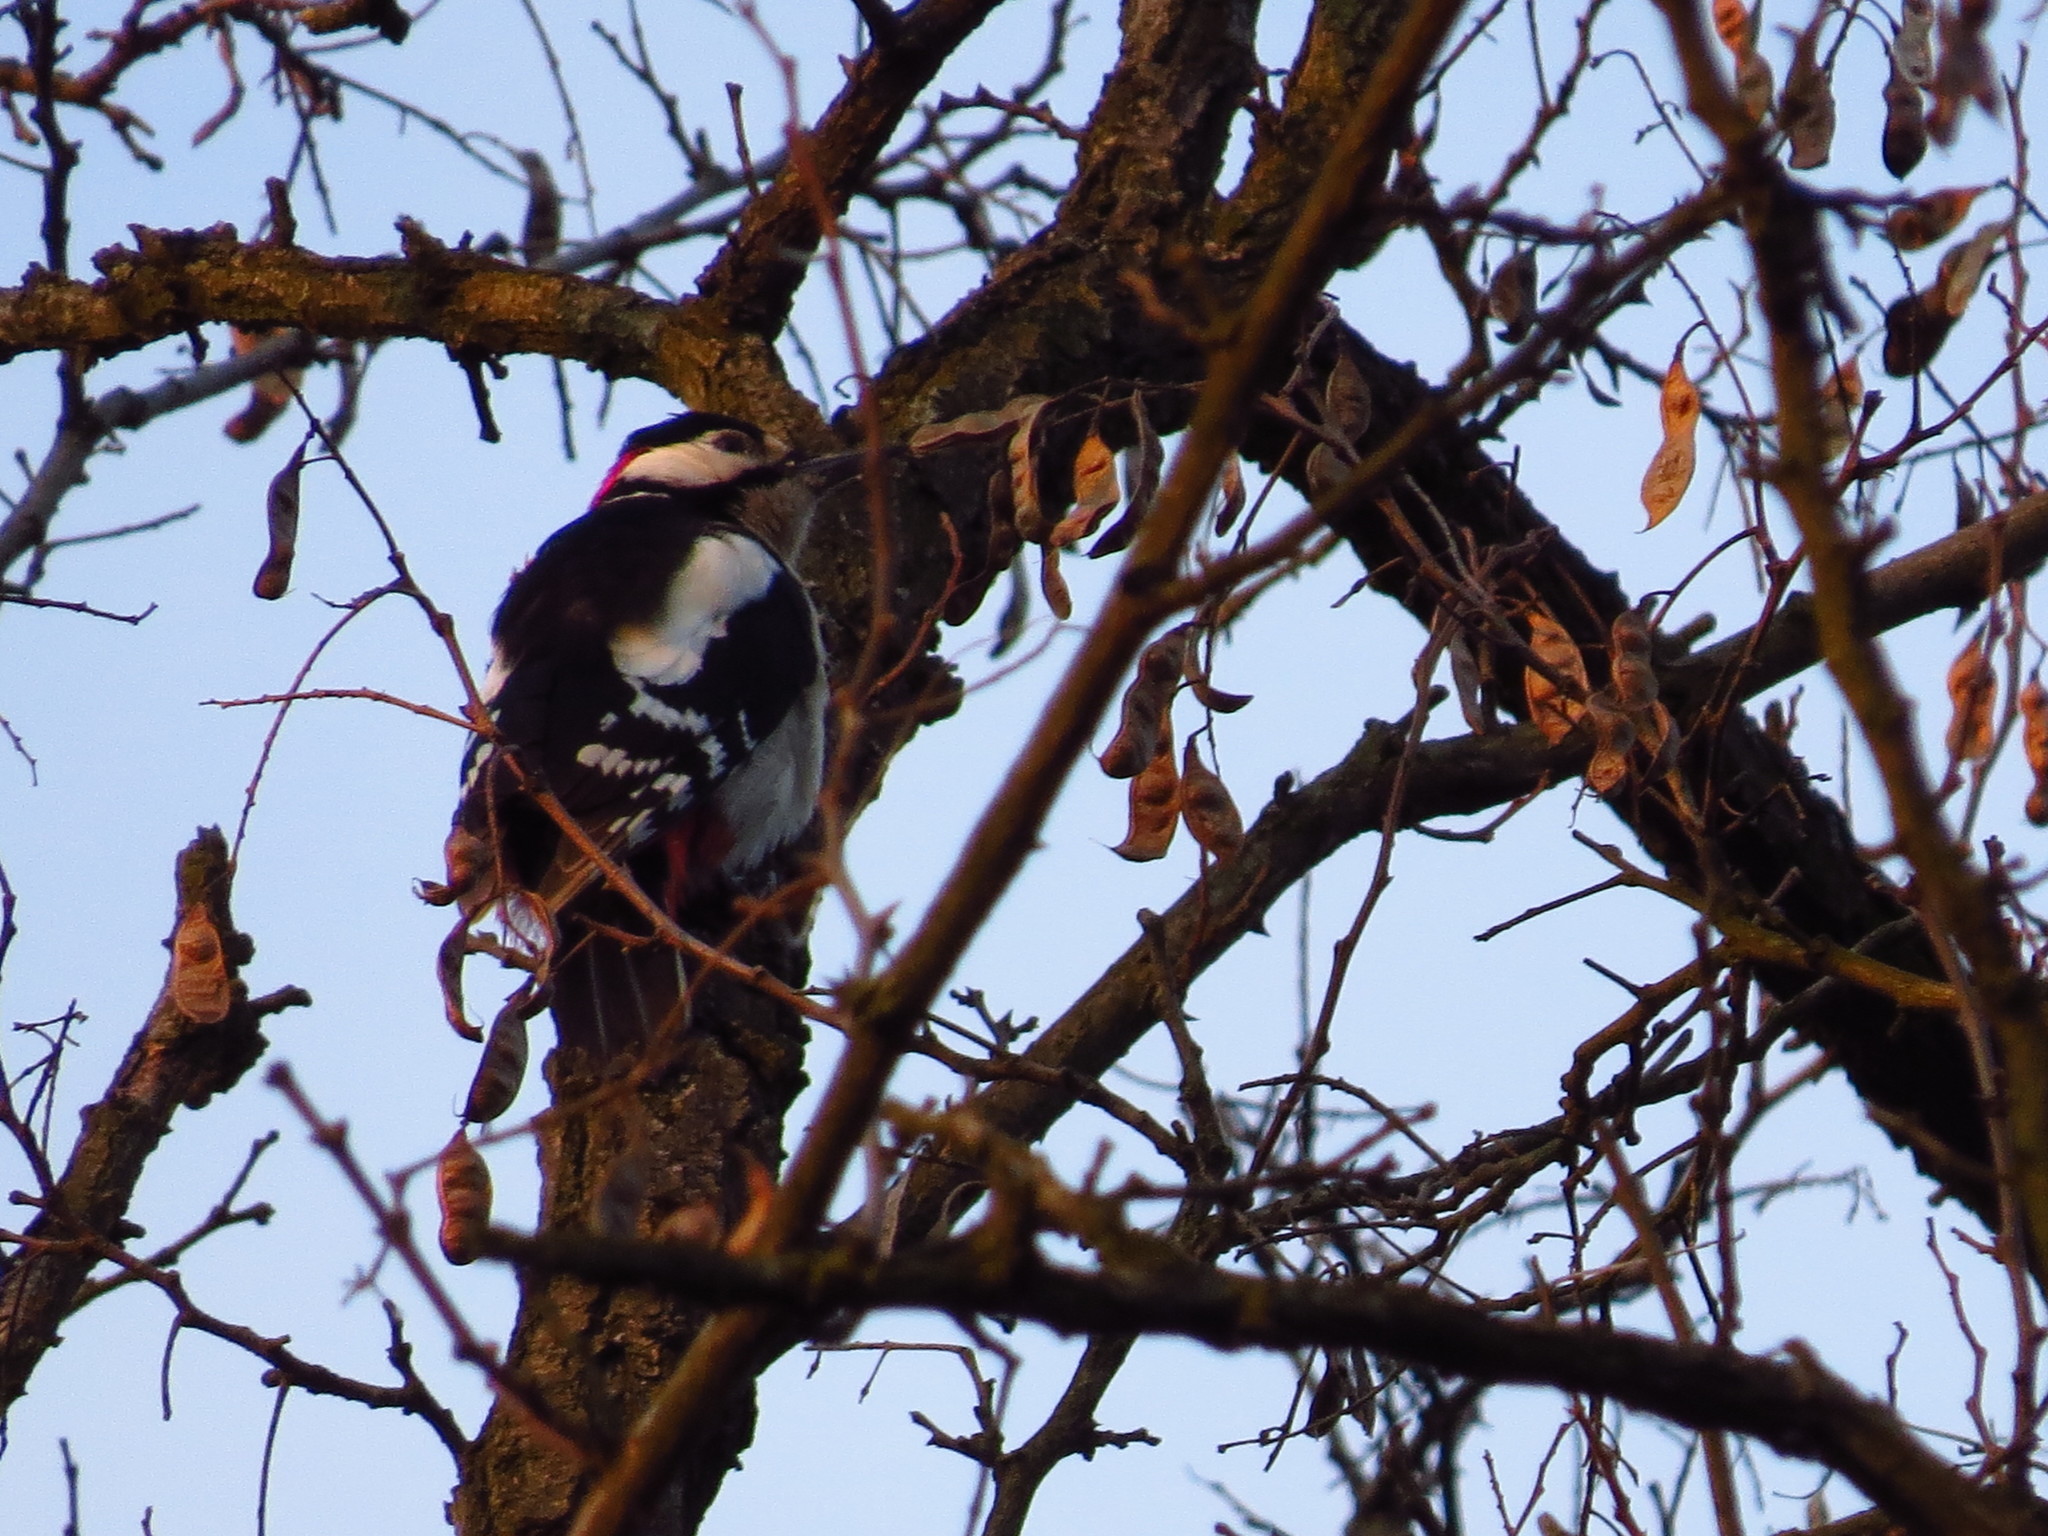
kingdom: Animalia
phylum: Chordata
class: Aves
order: Piciformes
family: Picidae
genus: Dendrocopos
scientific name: Dendrocopos major
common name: Great spotted woodpecker
